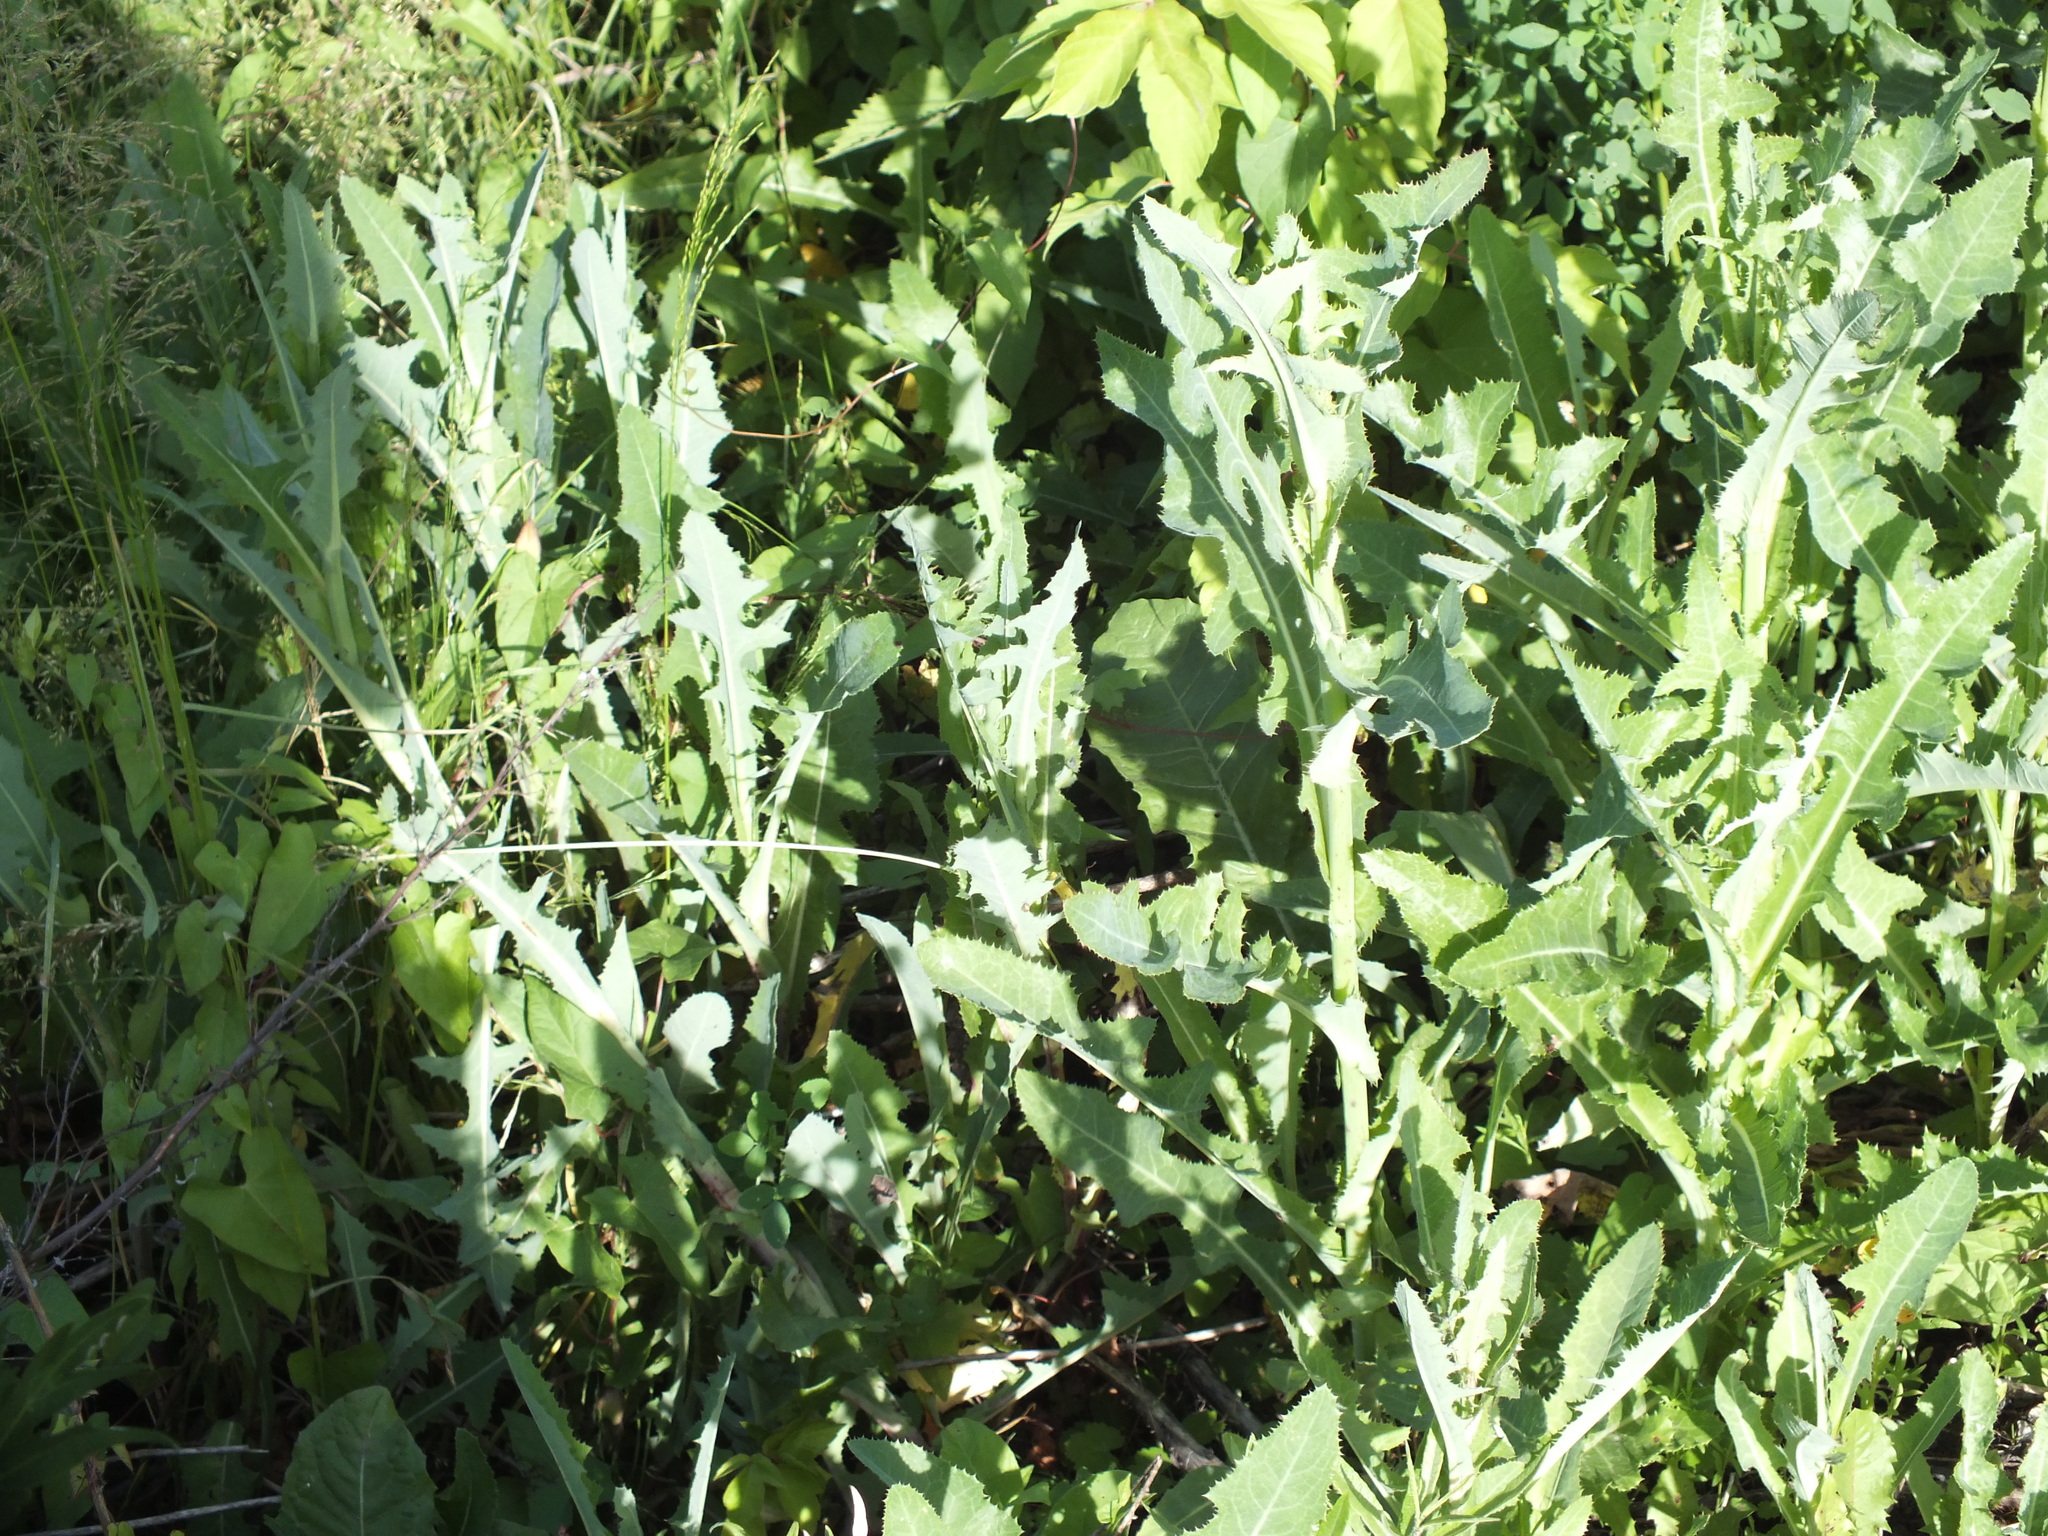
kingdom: Plantae
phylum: Tracheophyta
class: Magnoliopsida
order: Asterales
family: Asteraceae
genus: Sonchus
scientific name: Sonchus arvensis
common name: Perennial sow-thistle
